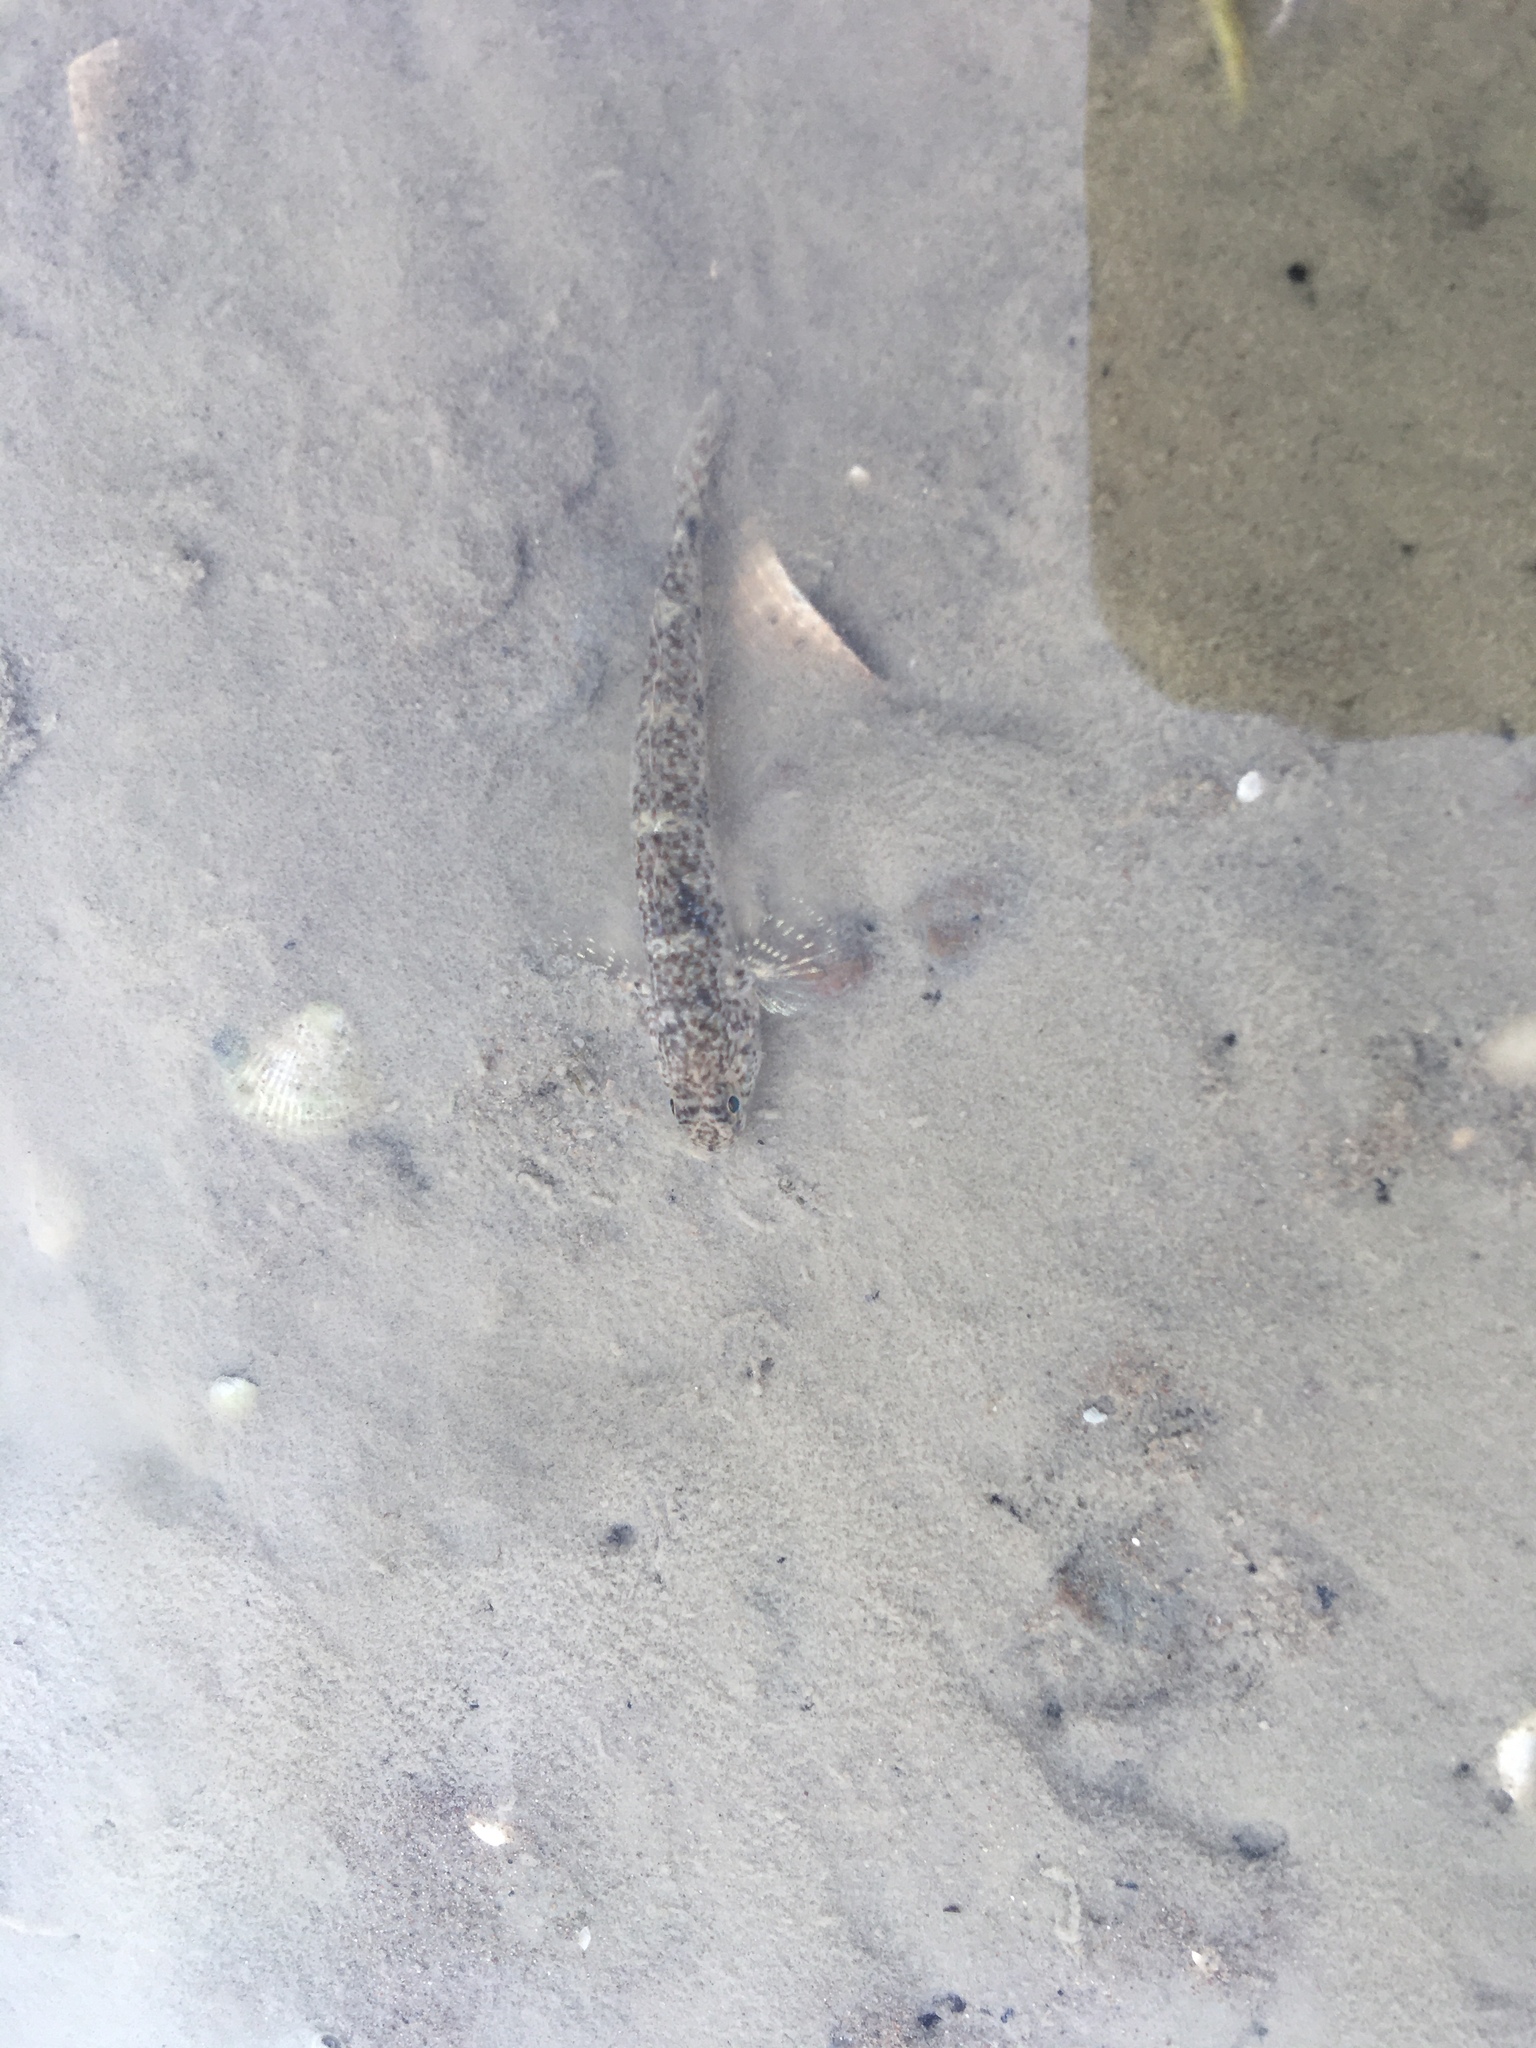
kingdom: Animalia
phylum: Chordata
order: Perciformes
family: Gobiidae
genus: Favonigobius
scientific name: Favonigobius exquisitus
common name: Exquisite sand-goby
